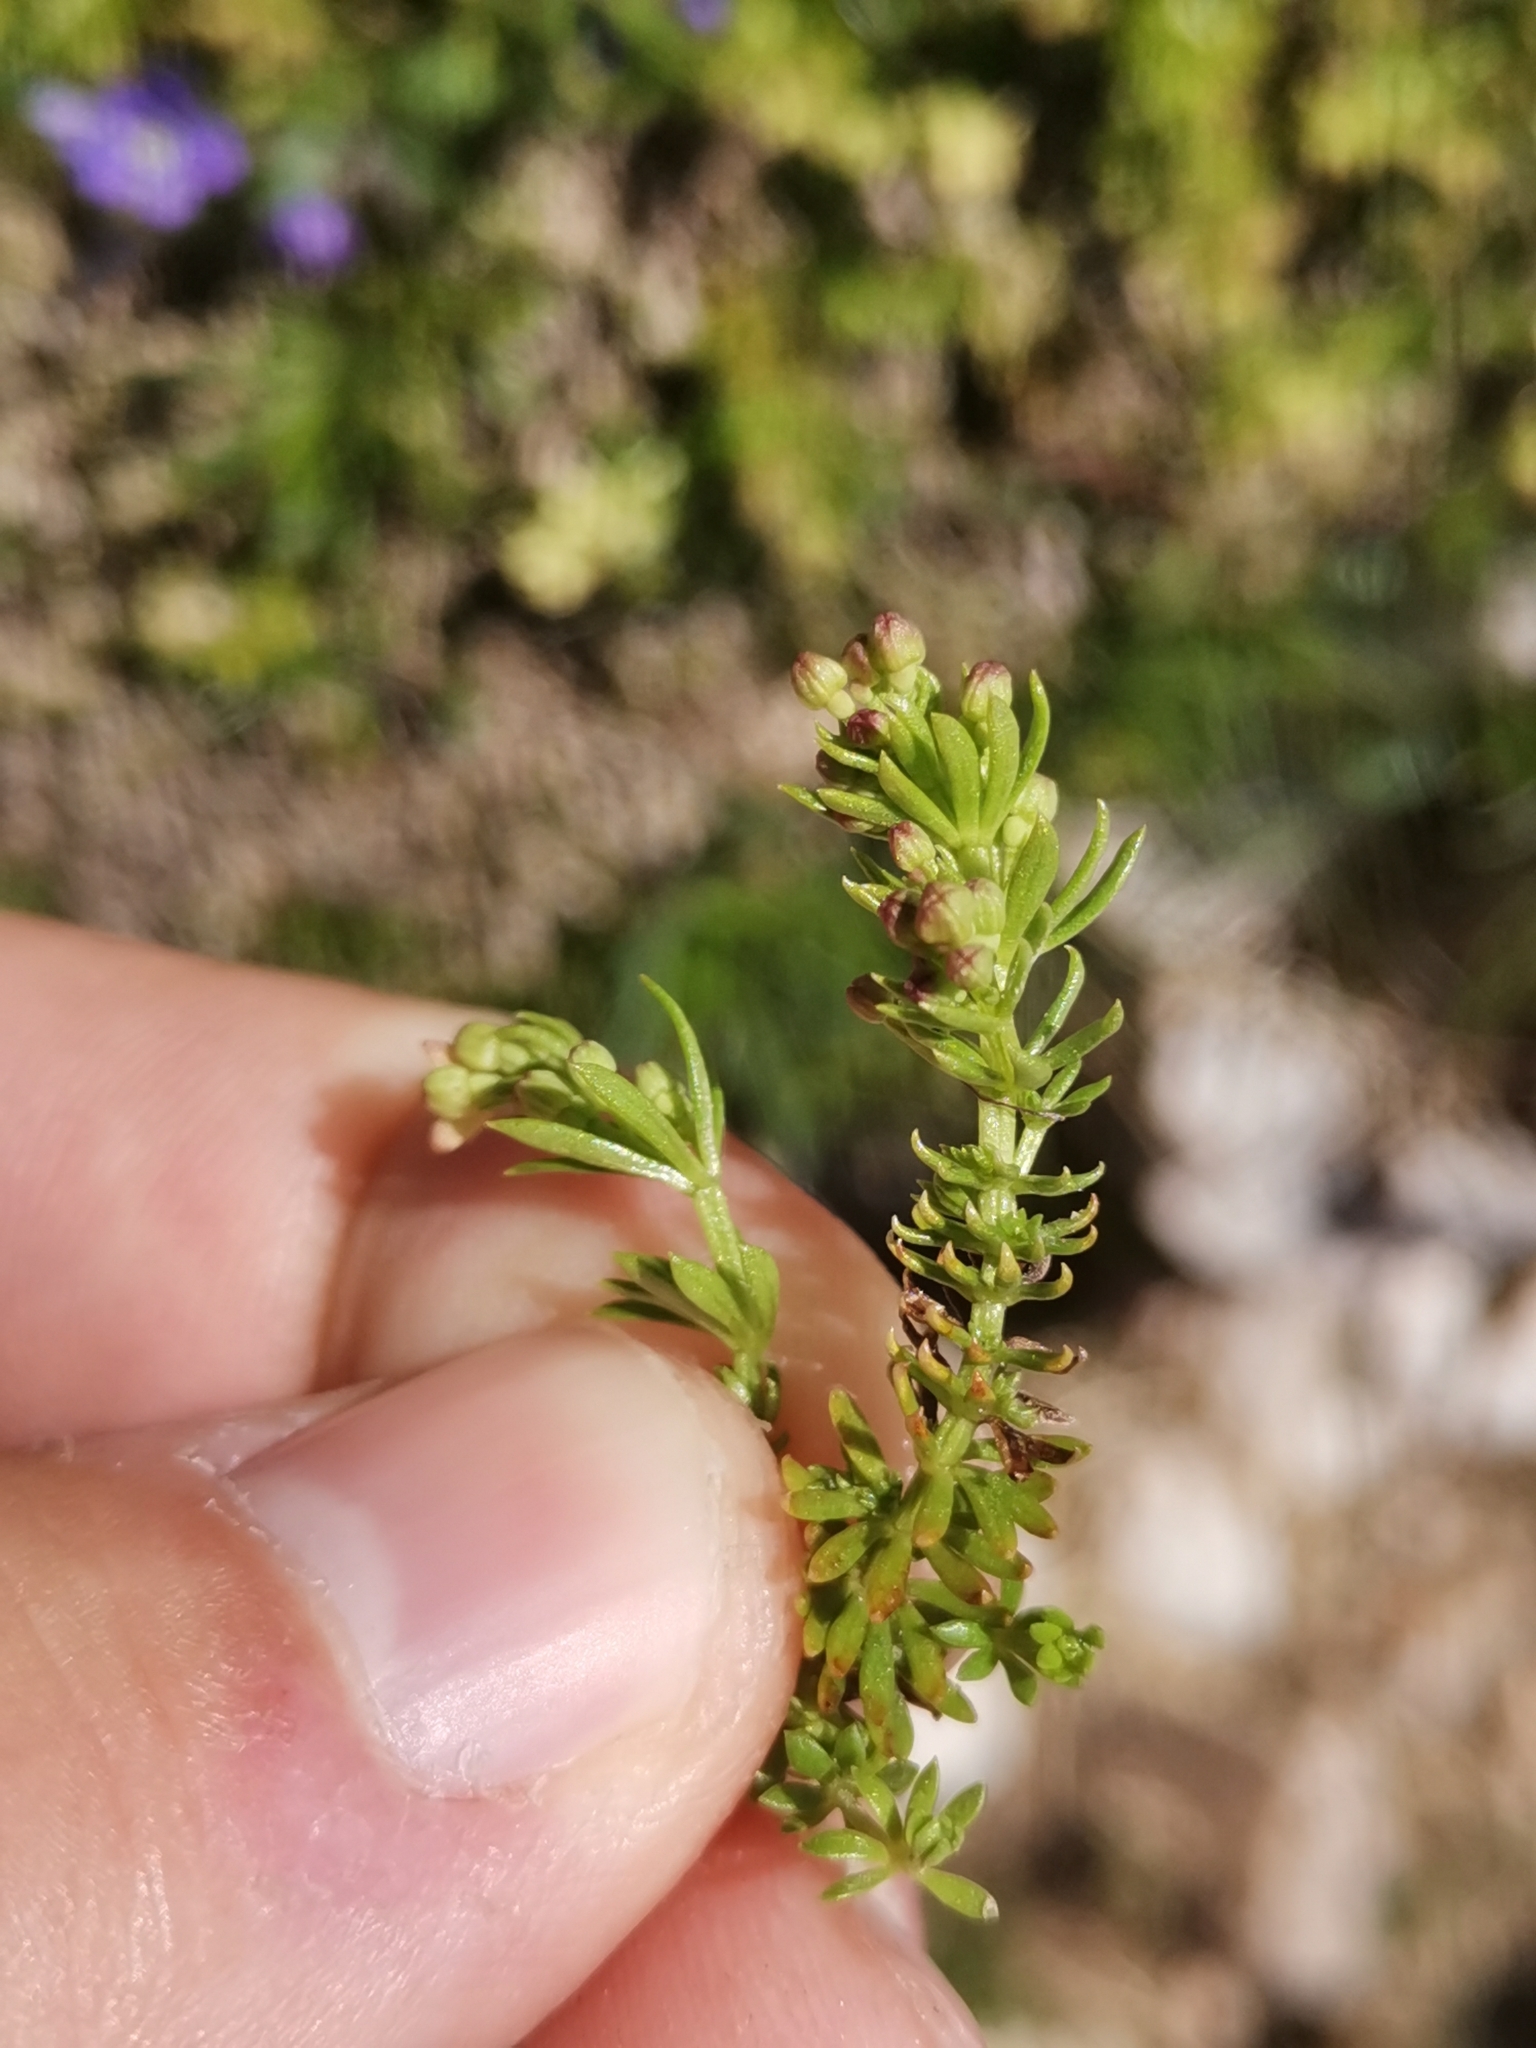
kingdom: Plantae
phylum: Tracheophyta
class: Magnoliopsida
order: Gentianales
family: Rubiaceae
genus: Galium
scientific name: Galium noricum
